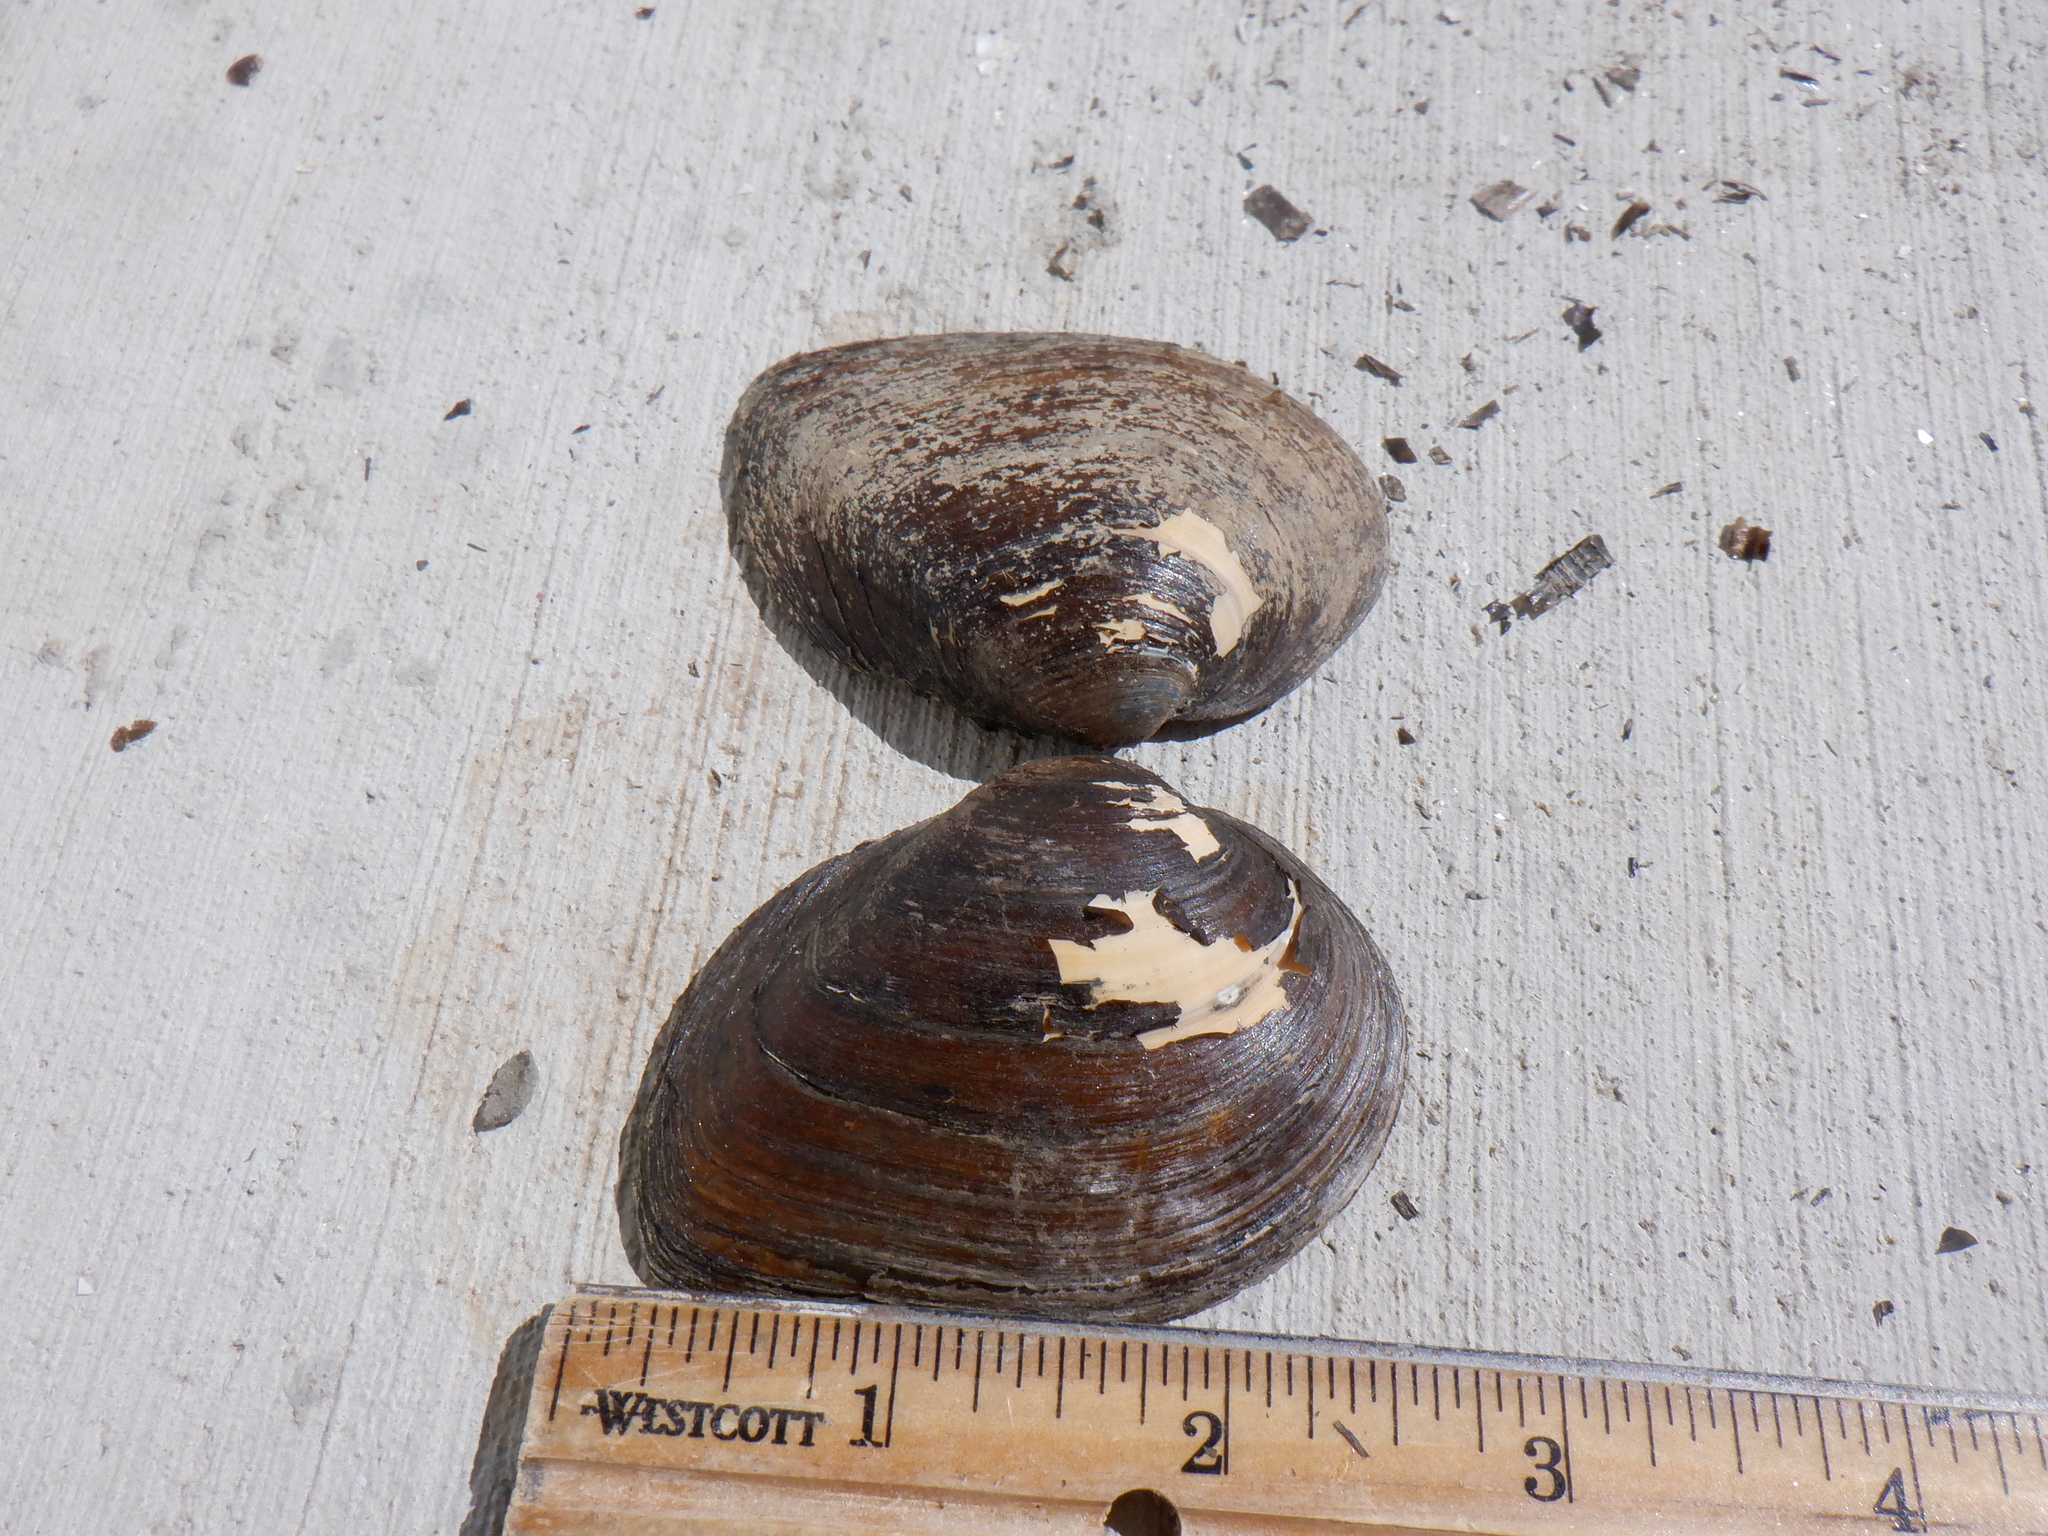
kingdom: Animalia
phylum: Mollusca
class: Bivalvia
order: Unionida
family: Unionidae
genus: Fusconaia
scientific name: Fusconaia flava
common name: Wabash pigtoe
